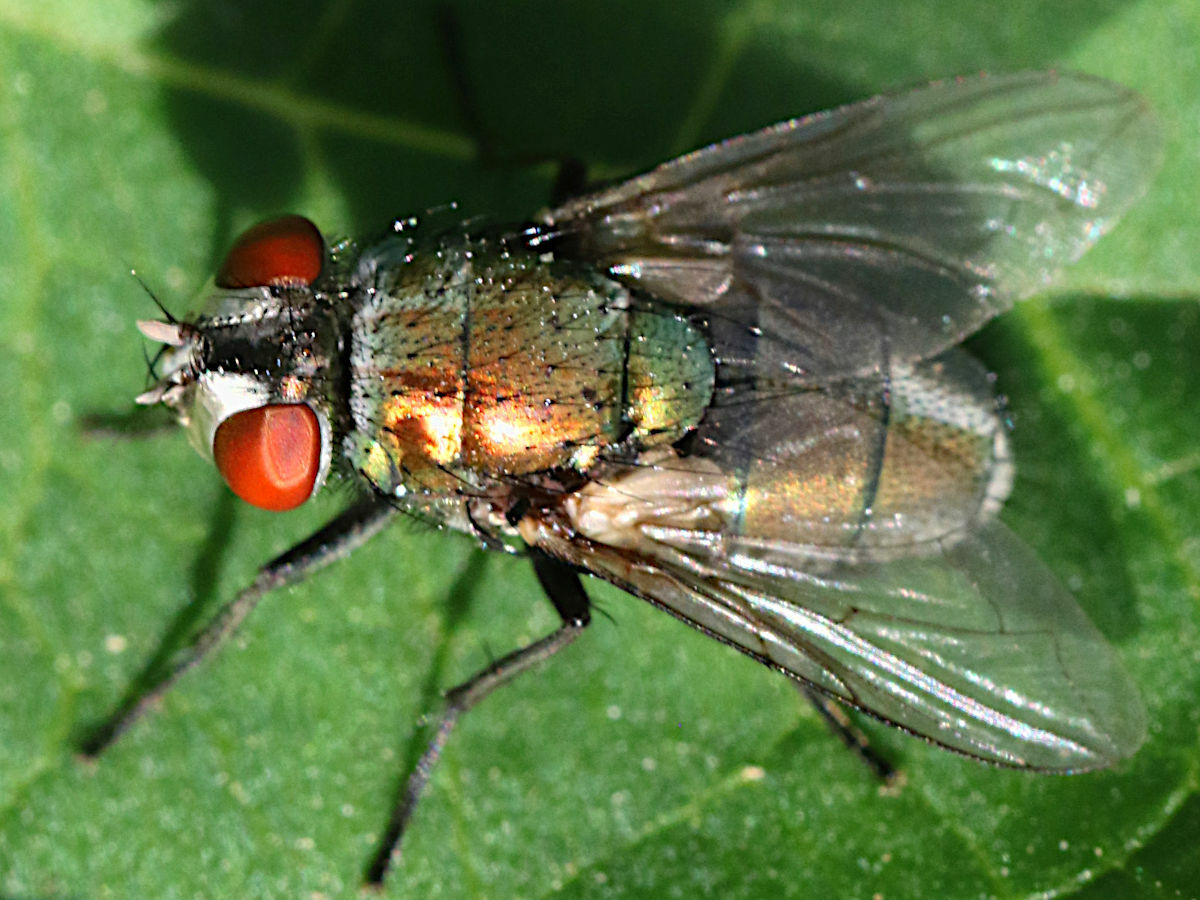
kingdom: Animalia
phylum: Arthropoda
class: Insecta
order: Diptera
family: Calliphoridae
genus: Lucilia
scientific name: Lucilia sericata
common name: Blow fly
